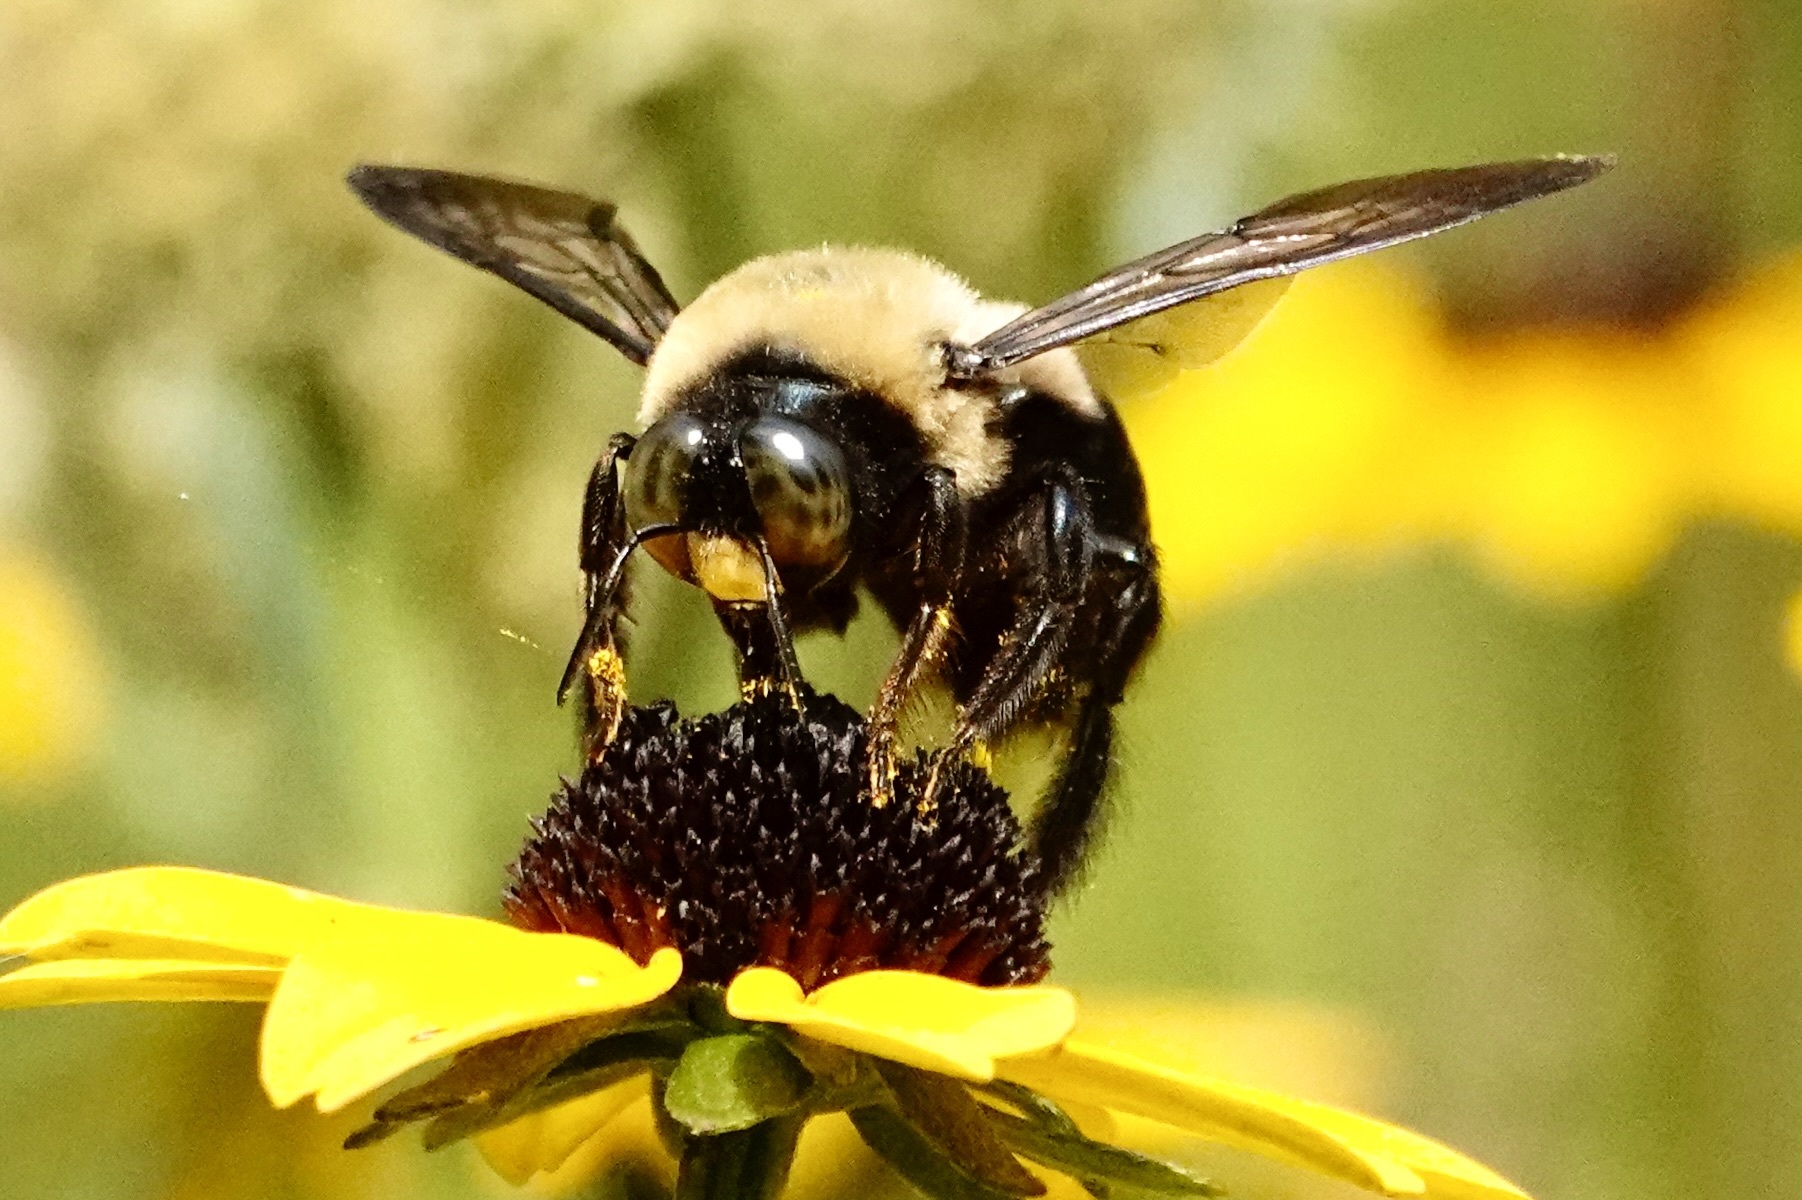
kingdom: Animalia
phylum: Arthropoda
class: Insecta
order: Hymenoptera
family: Apidae
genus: Xylocopa
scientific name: Xylocopa virginica
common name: Carpenter bee
